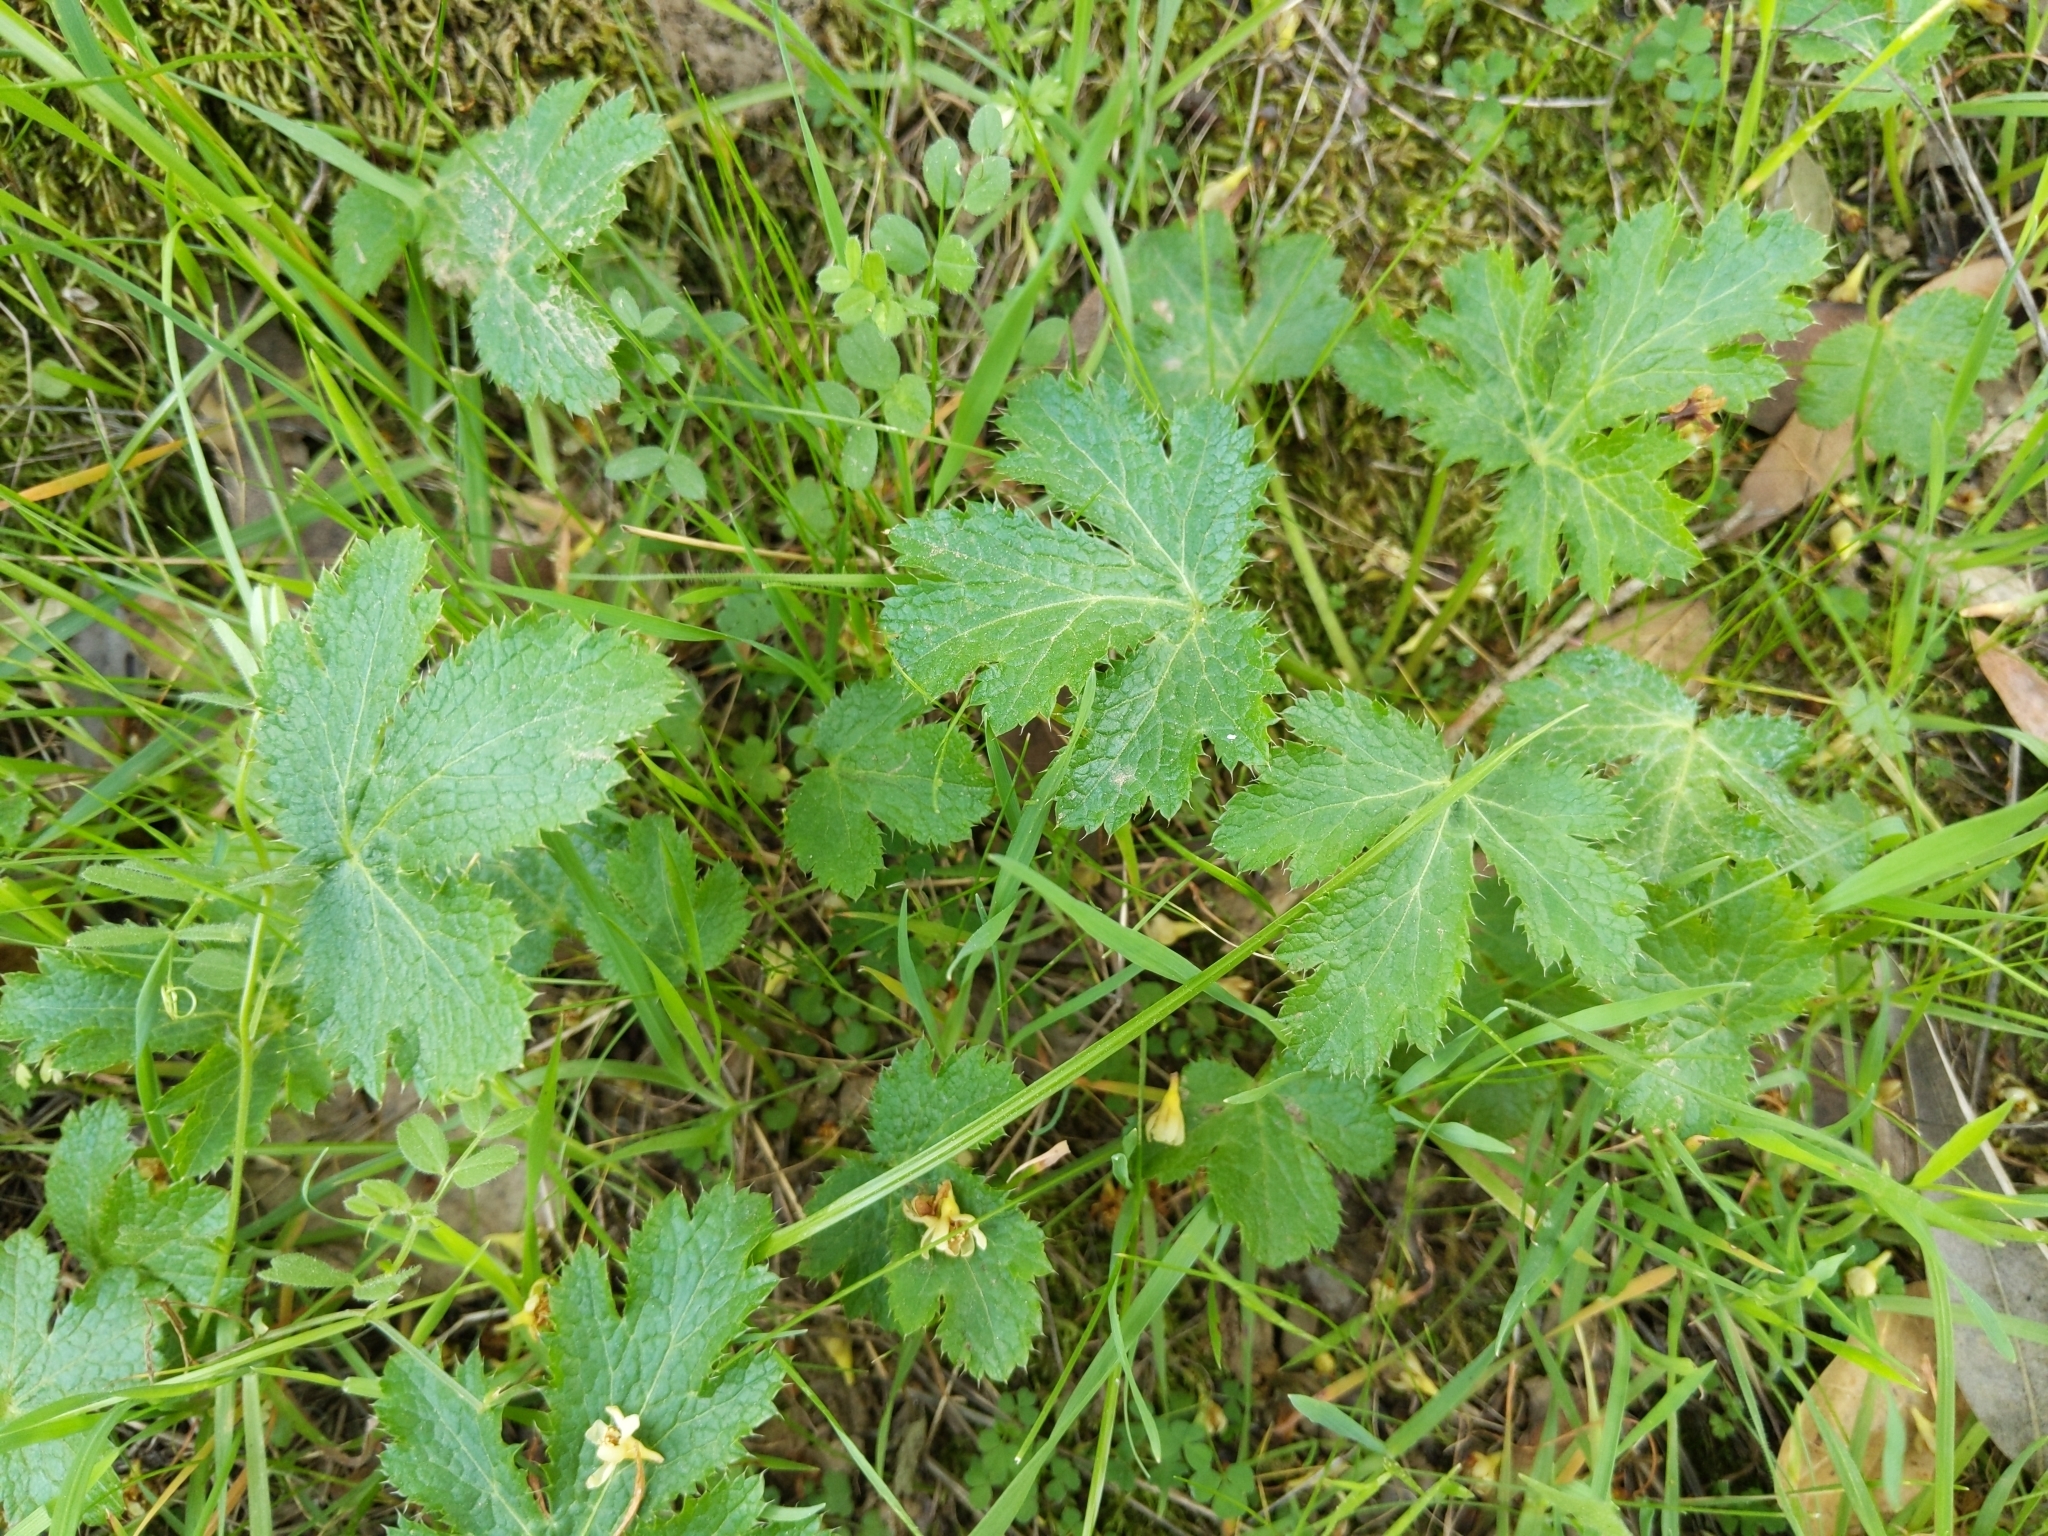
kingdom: Plantae
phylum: Tracheophyta
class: Magnoliopsida
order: Apiales
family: Apiaceae
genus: Sanicula
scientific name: Sanicula crassicaulis
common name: Western snakeroot
